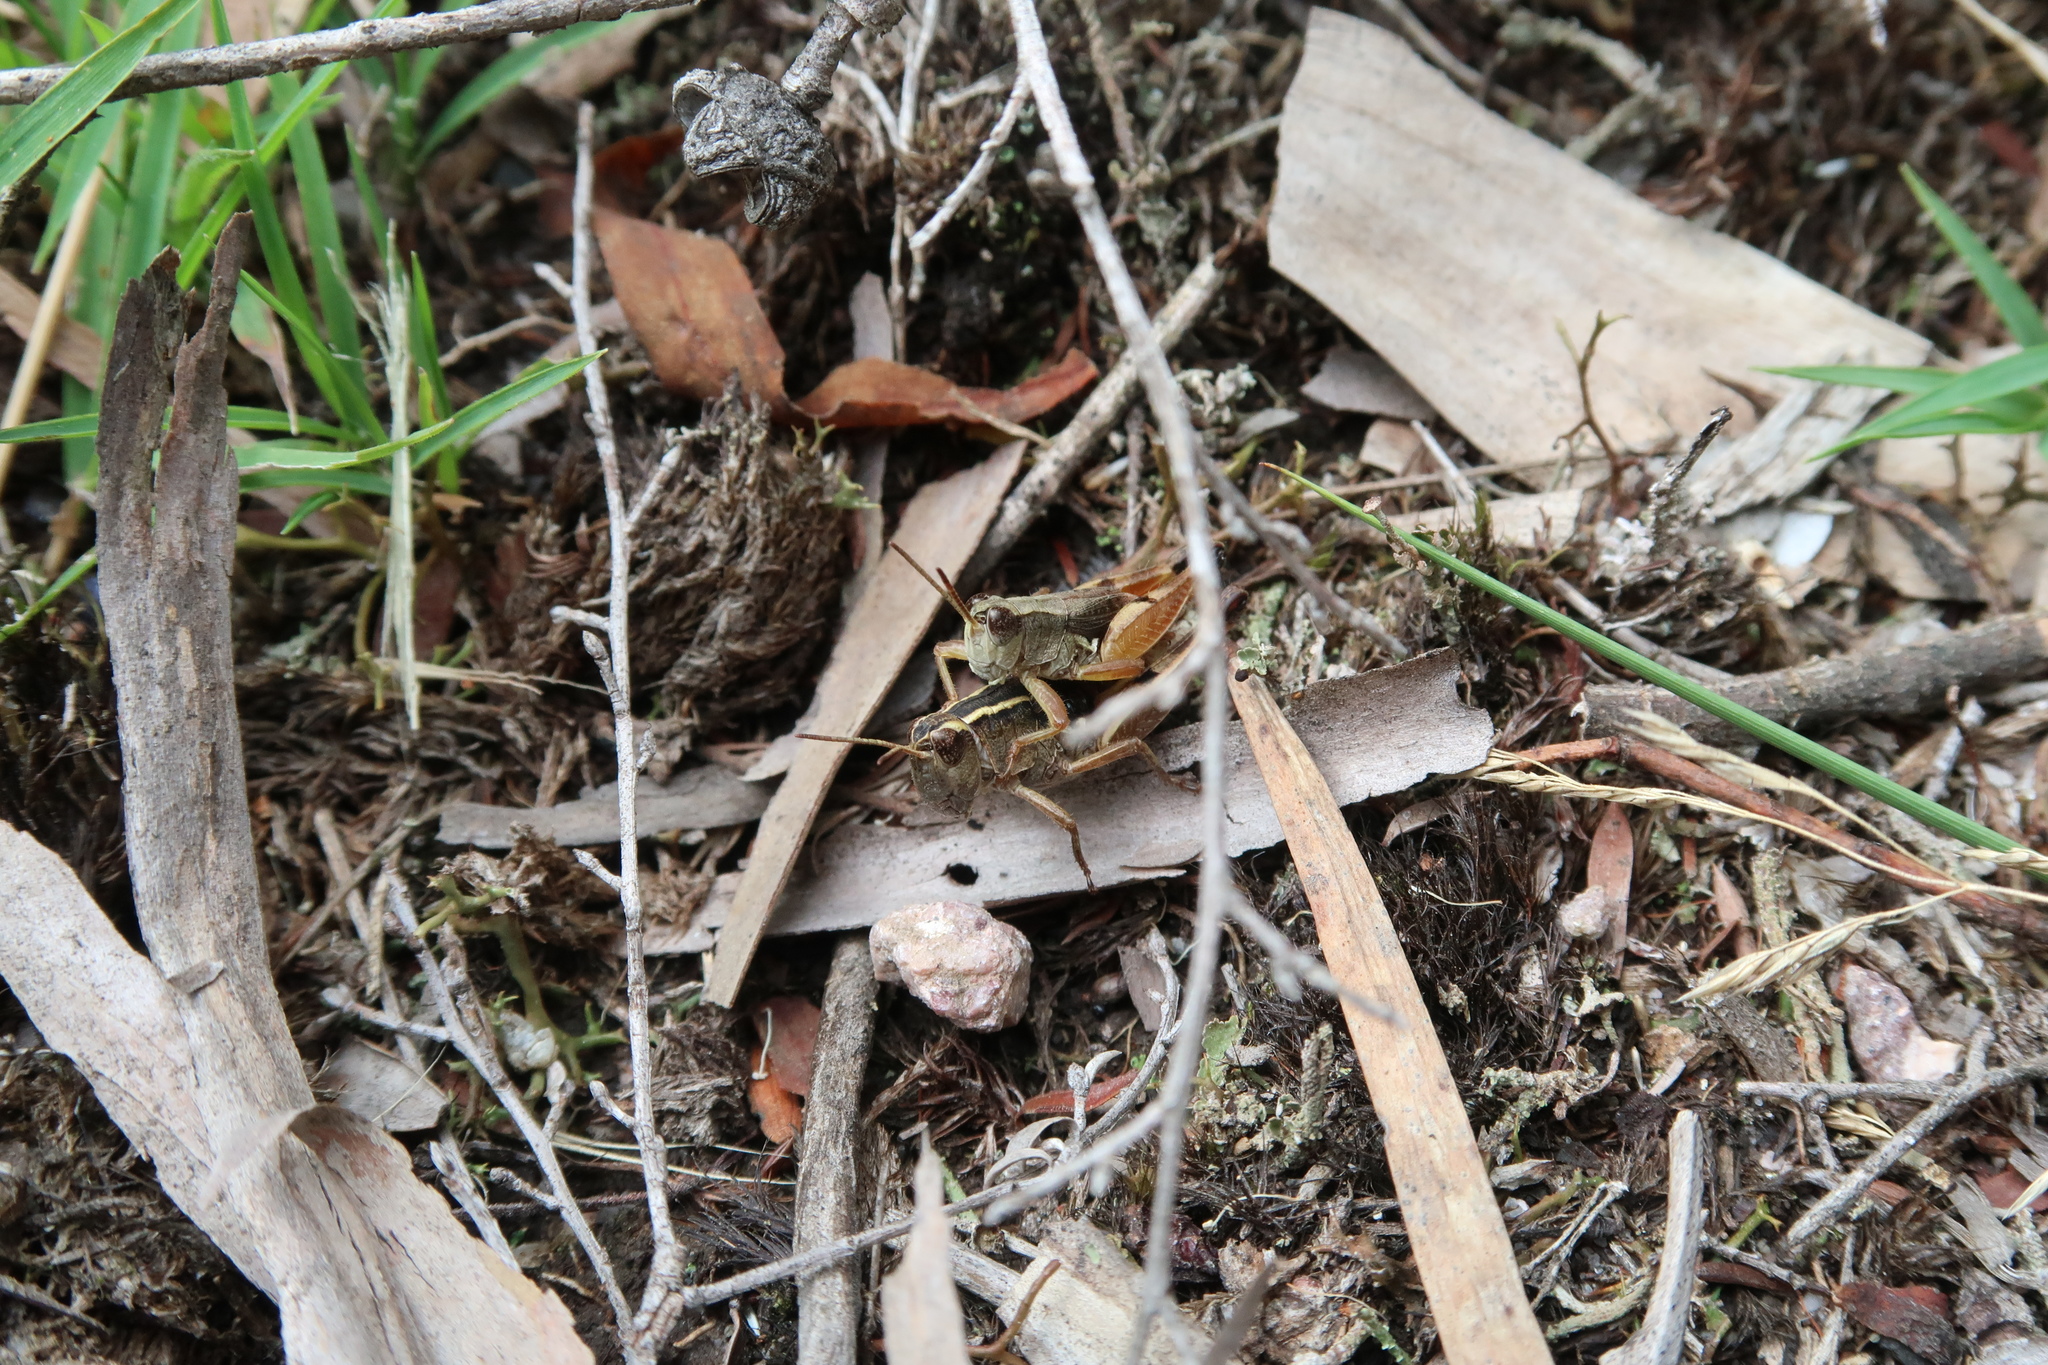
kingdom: Animalia
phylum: Arthropoda
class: Insecta
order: Orthoptera
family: Acrididae
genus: Phaulacridium
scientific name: Phaulacridium vittatum
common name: Wingless grasshopper
